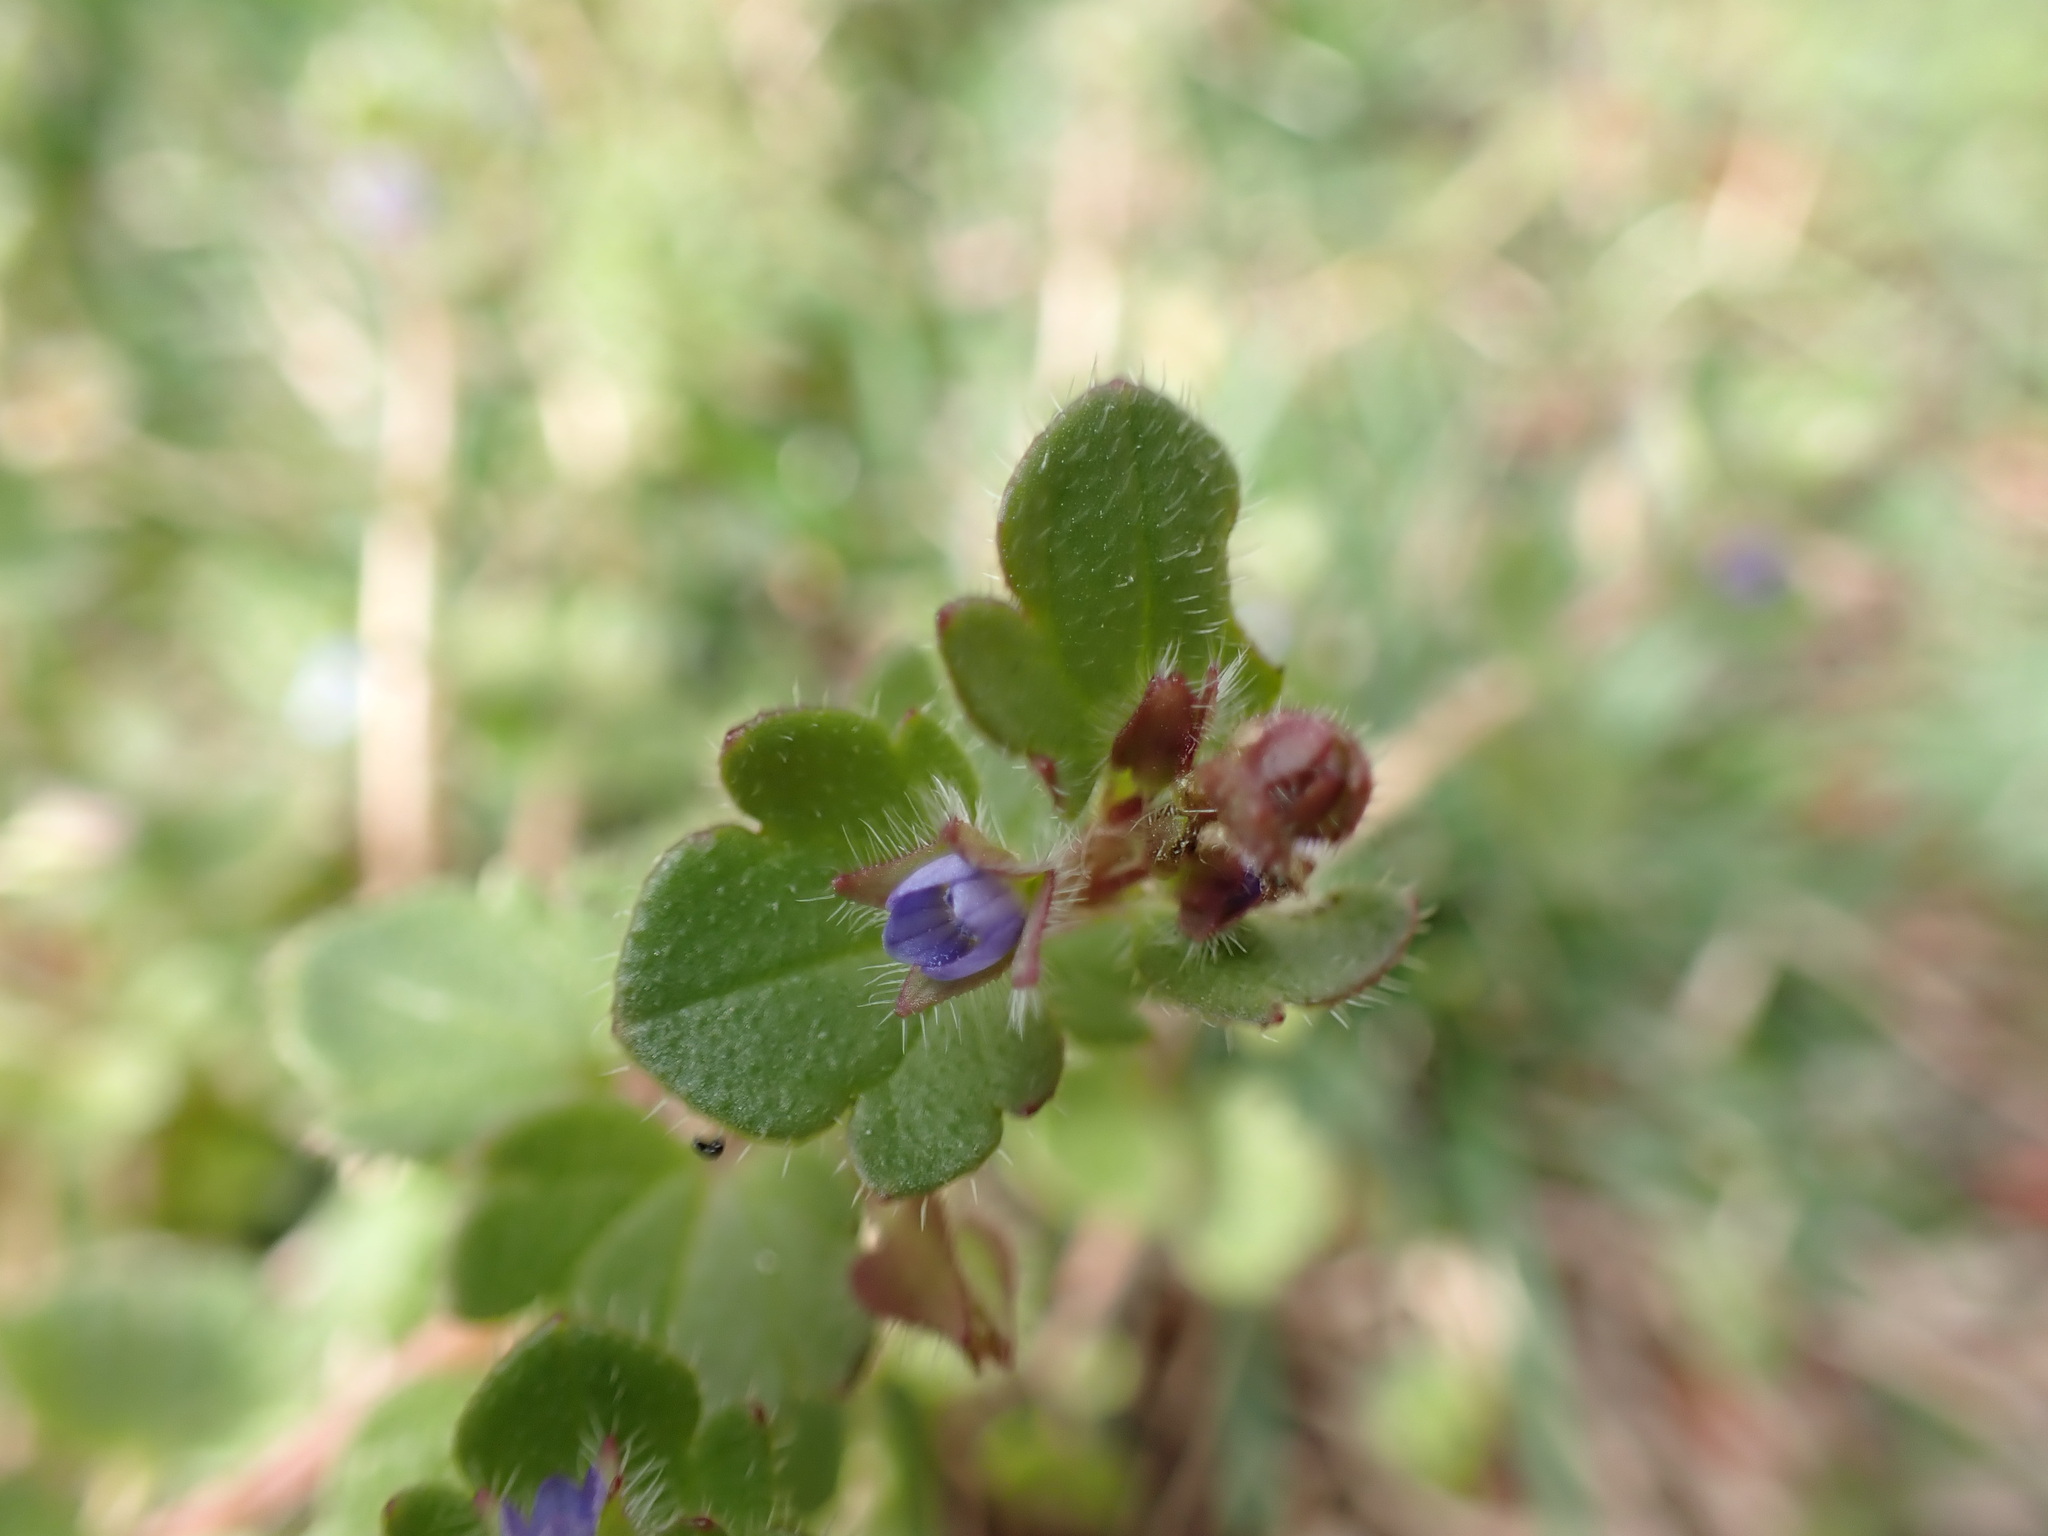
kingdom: Plantae
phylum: Tracheophyta
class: Magnoliopsida
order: Lamiales
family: Plantaginaceae
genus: Veronica
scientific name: Veronica hederifolia
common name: Ivy-leaved speedwell
